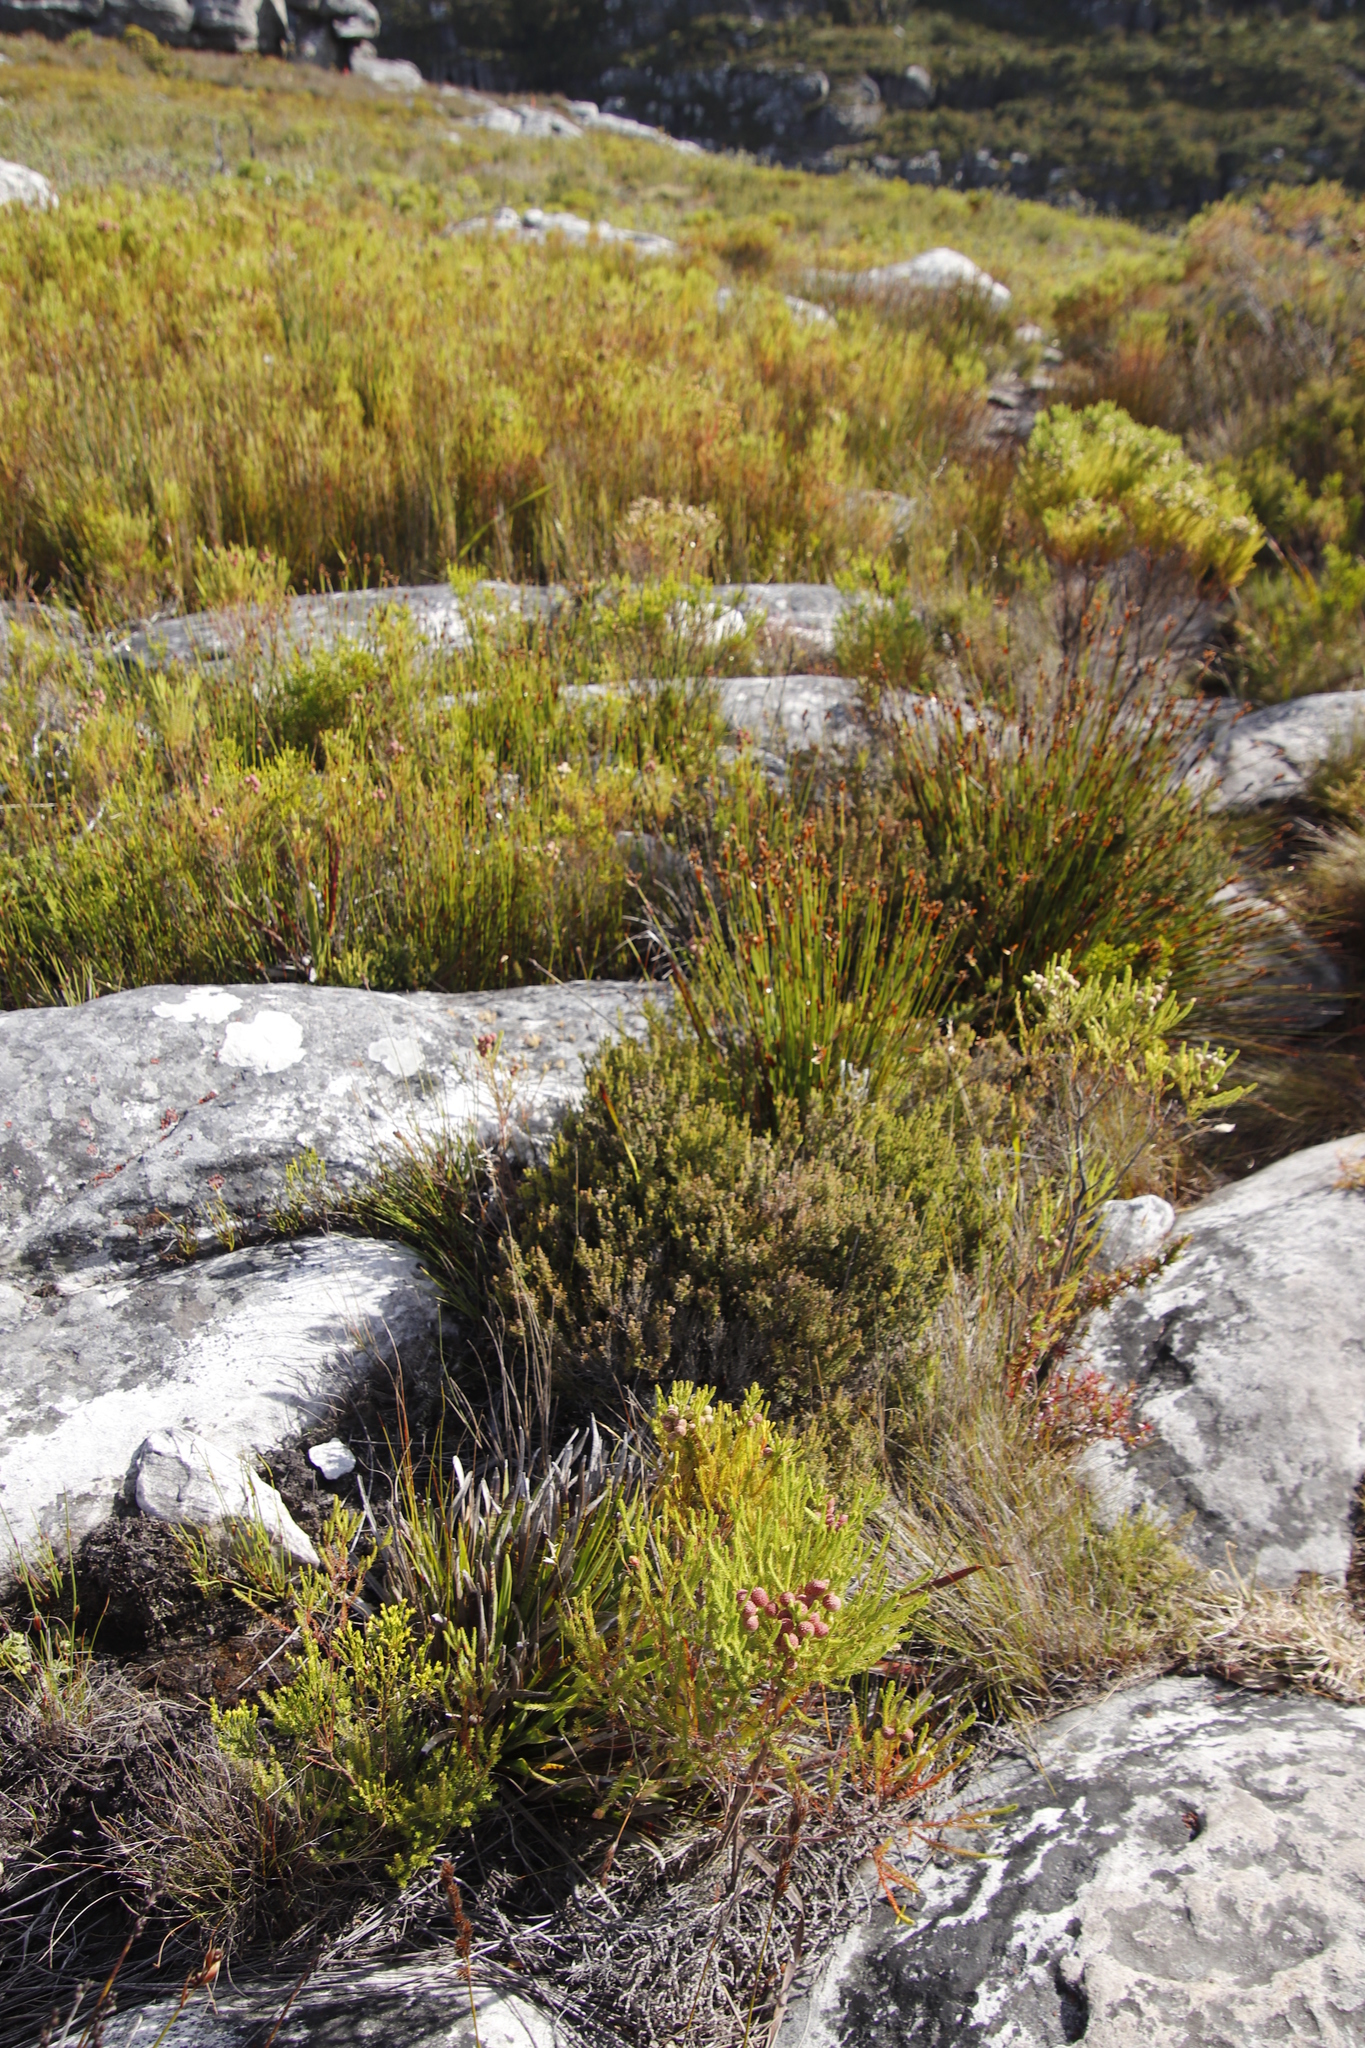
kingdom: Plantae
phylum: Tracheophyta
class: Magnoliopsida
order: Ericales
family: Ericaceae
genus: Erica
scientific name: Erica hispidula
